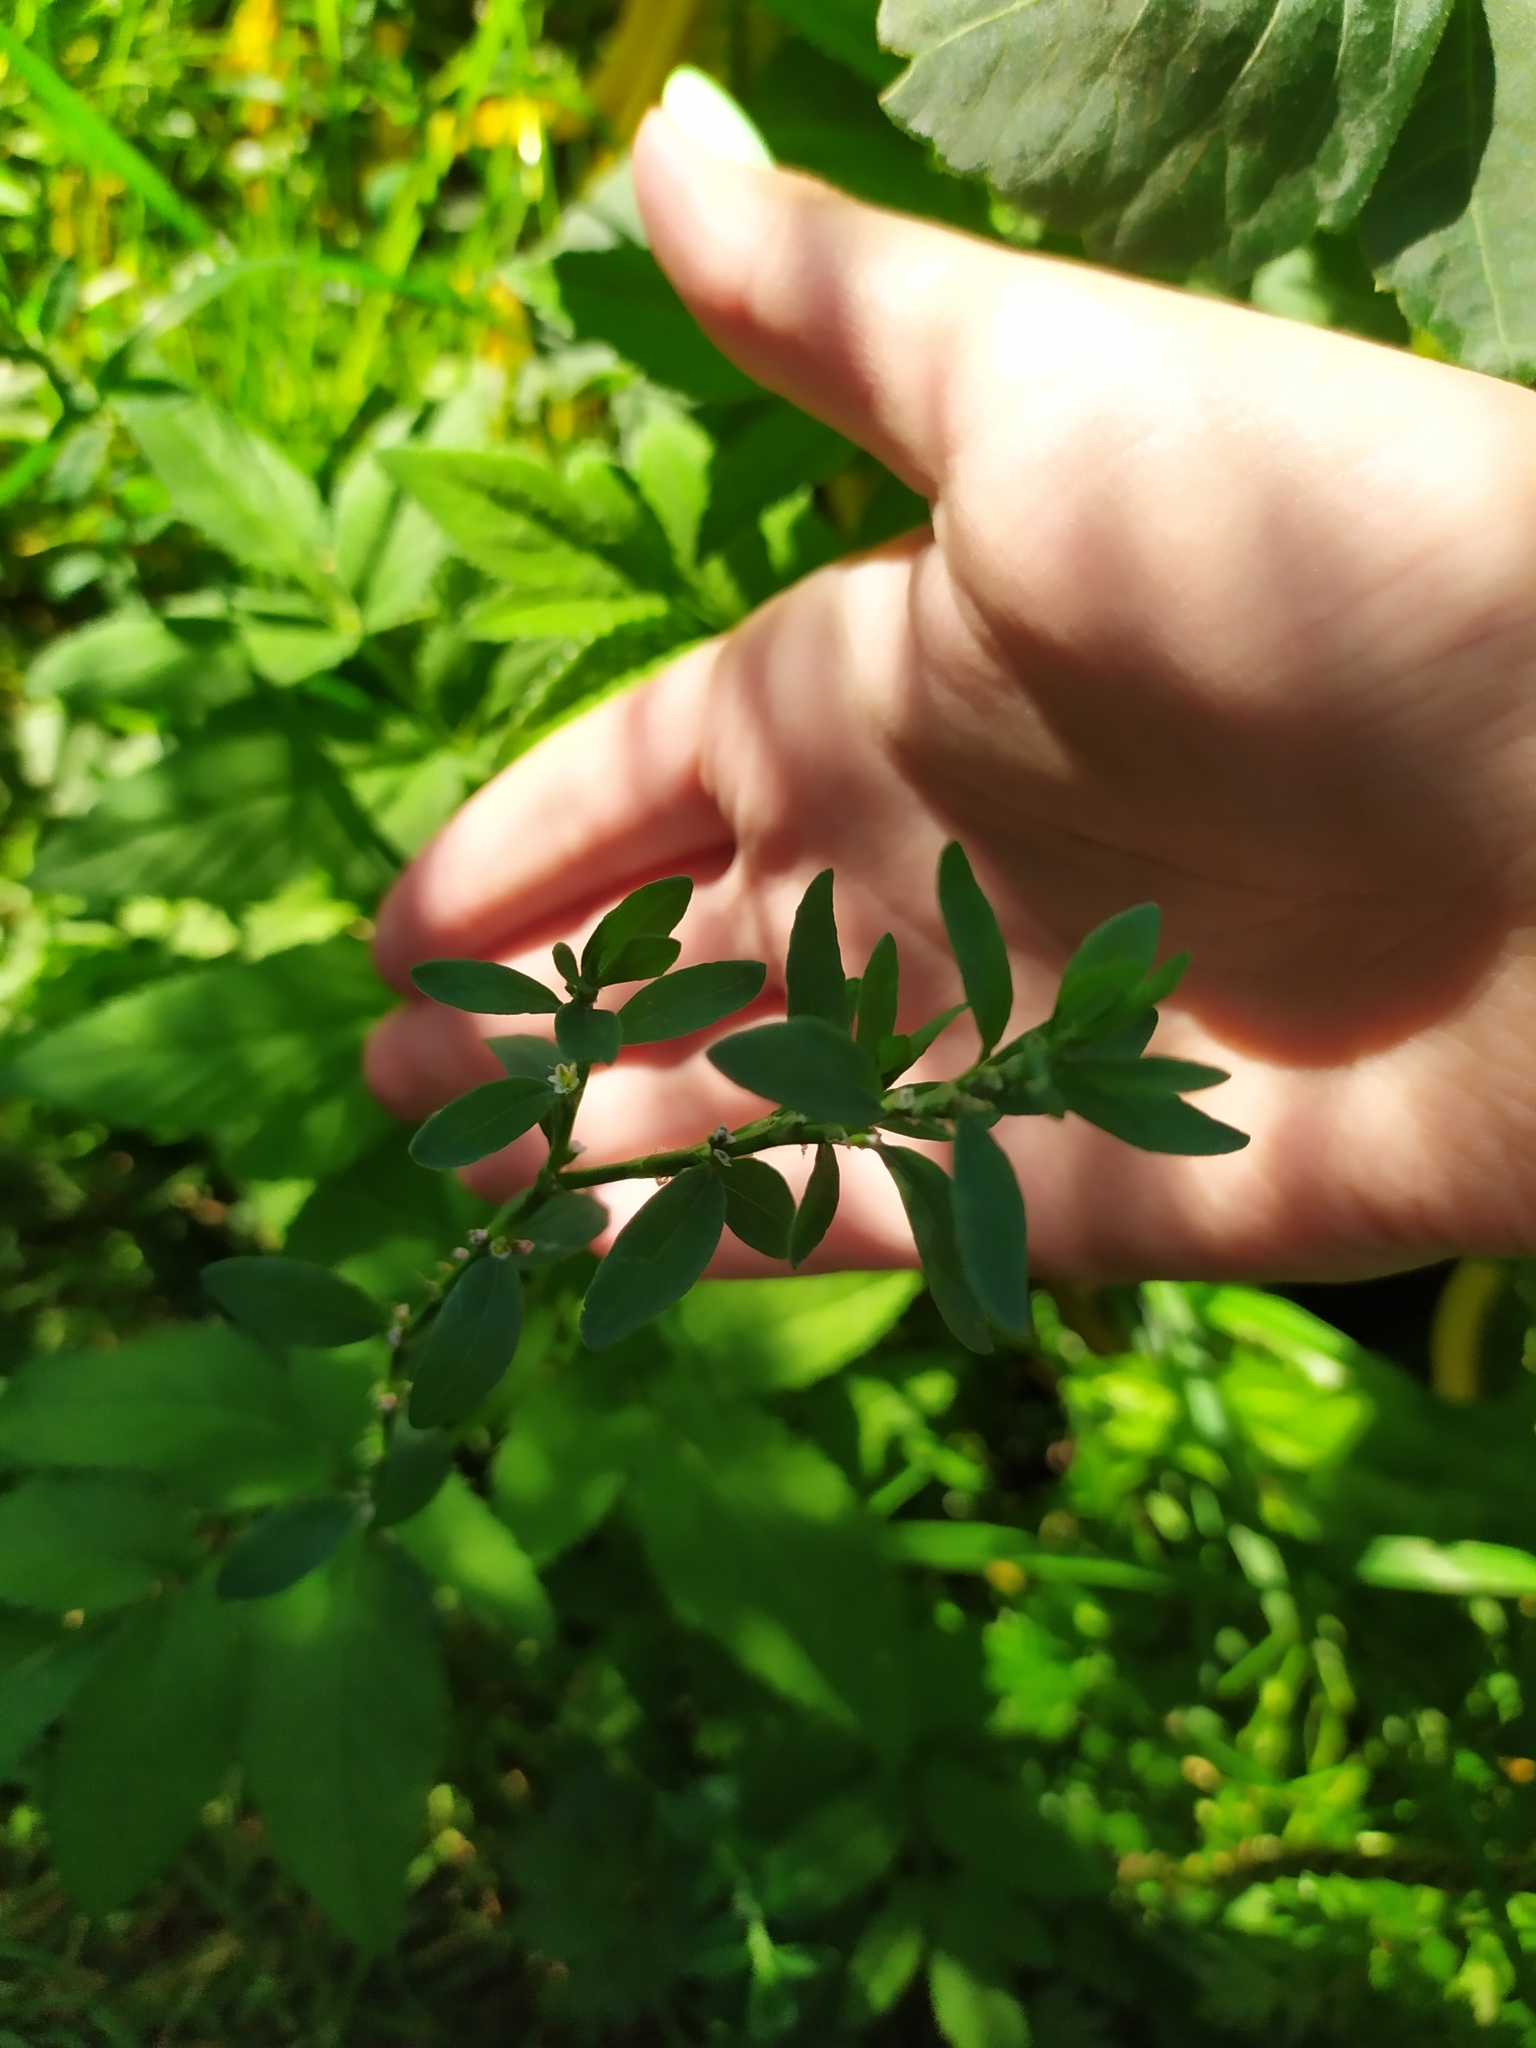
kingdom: Plantae
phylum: Tracheophyta
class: Magnoliopsida
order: Caryophyllales
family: Polygonaceae
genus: Polygonum
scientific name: Polygonum
